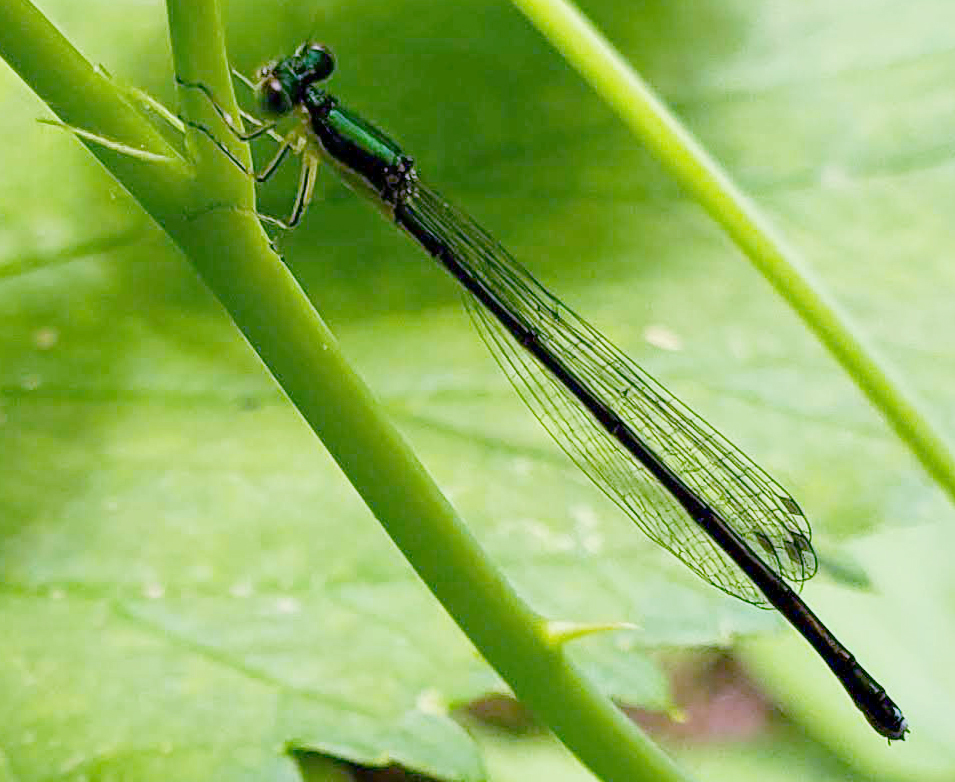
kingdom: Animalia
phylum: Arthropoda
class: Insecta
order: Odonata
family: Coenagrionidae
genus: Nehalennia
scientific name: Nehalennia irene
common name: Sedge sprite
